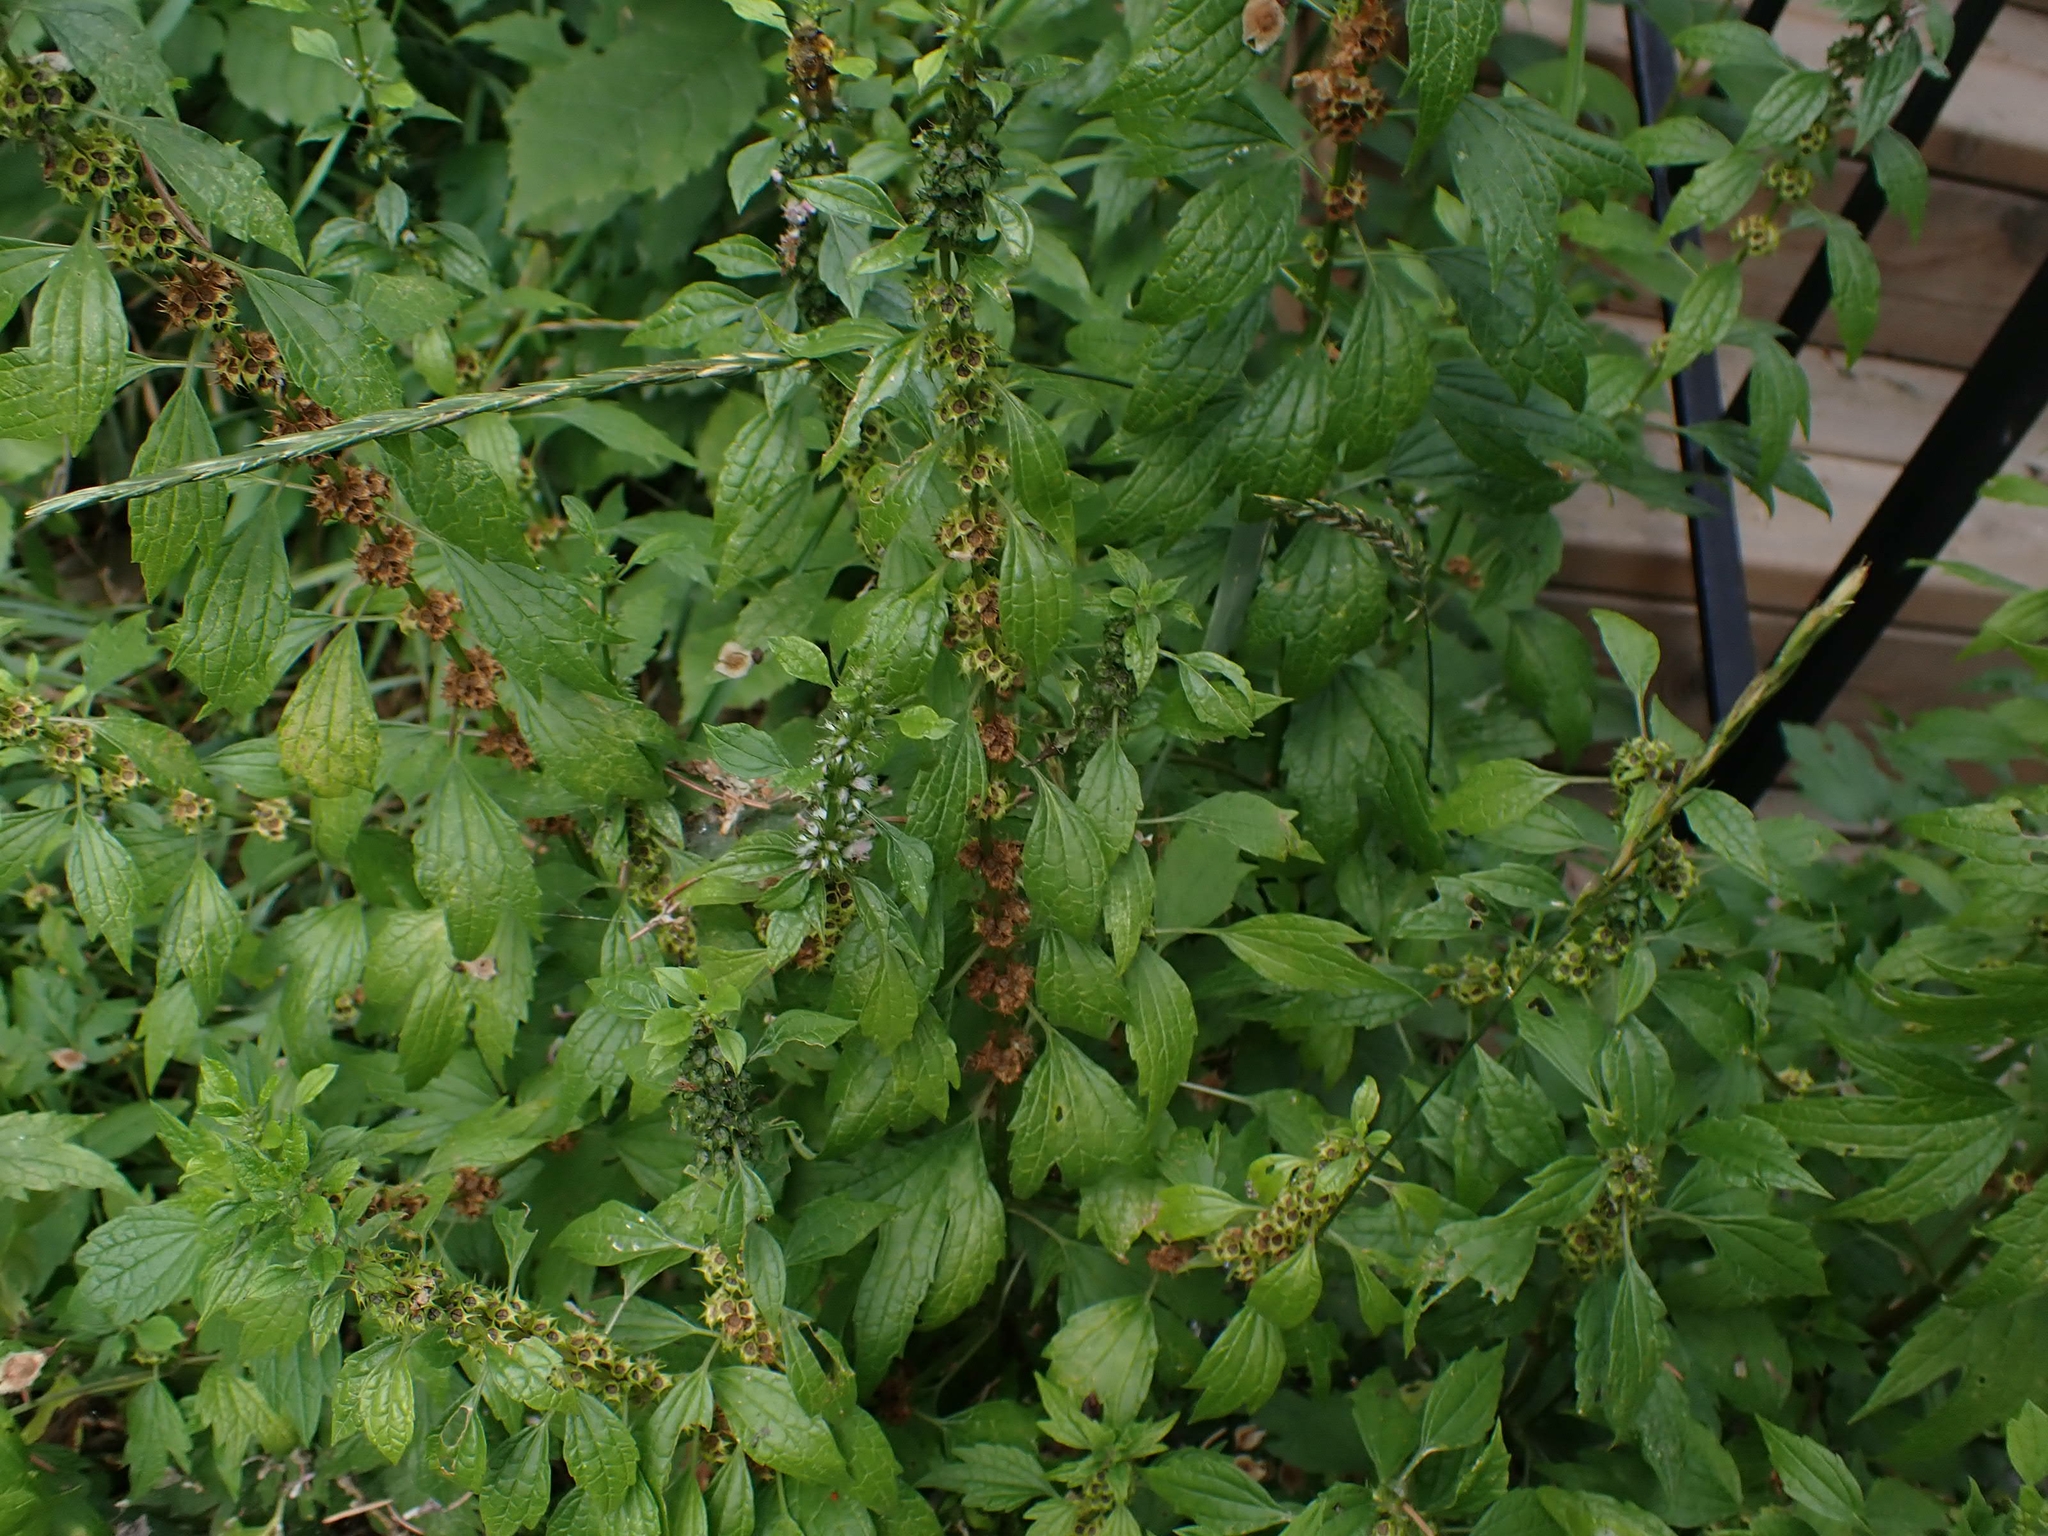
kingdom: Plantae
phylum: Tracheophyta
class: Magnoliopsida
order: Lamiales
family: Lamiaceae
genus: Leonurus
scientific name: Leonurus cardiaca
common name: Motherwort
